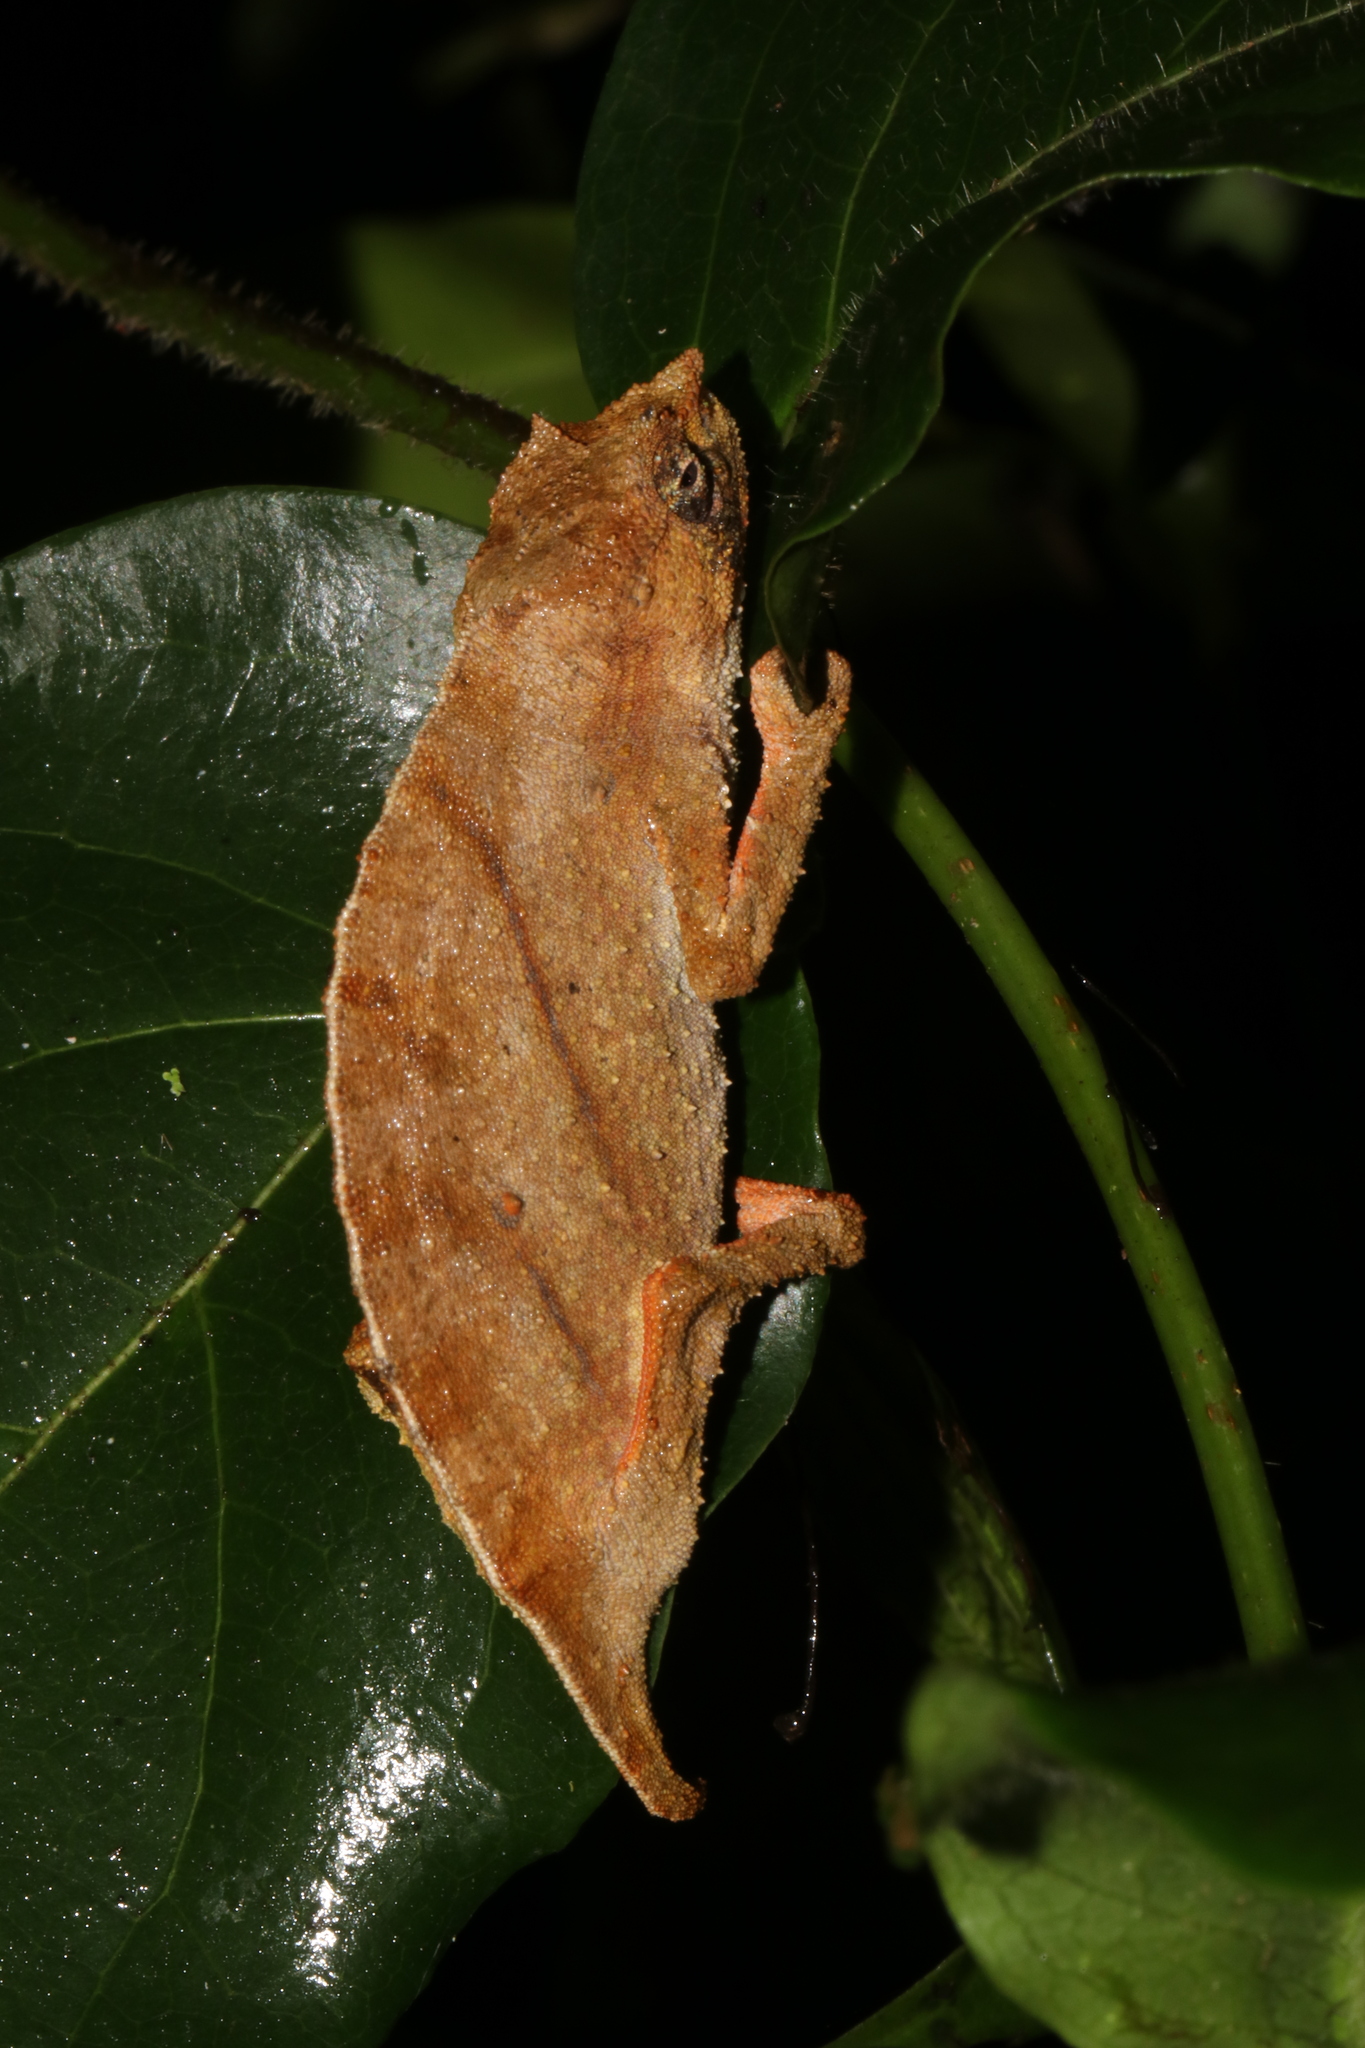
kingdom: Animalia
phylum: Chordata
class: Squamata
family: Chamaeleonidae
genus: Rhampholeon
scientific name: Rhampholeon nchisiensis
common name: South african stumptail chameleon
